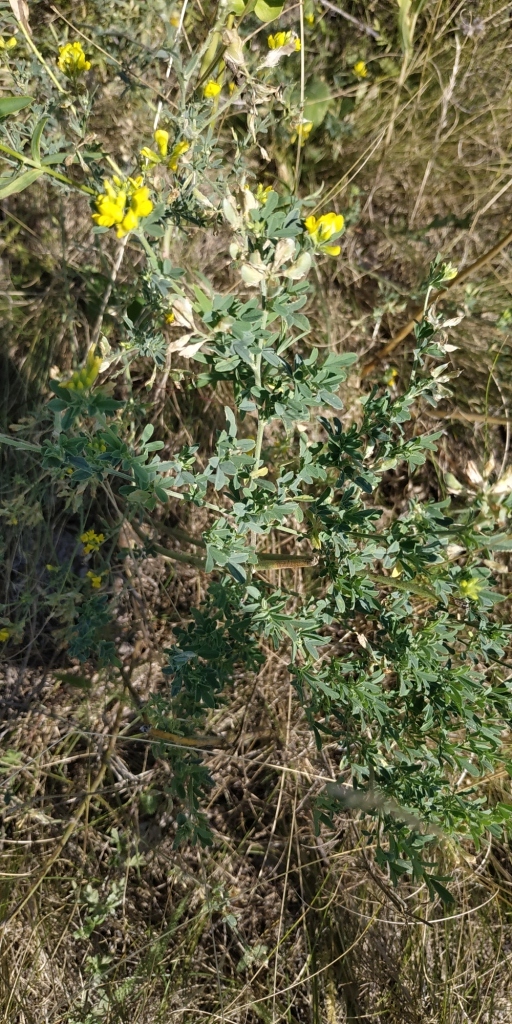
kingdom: Plantae
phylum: Tracheophyta
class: Magnoliopsida
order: Fabales
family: Fabaceae
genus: Medicago
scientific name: Medicago falcata
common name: Sickle medick
